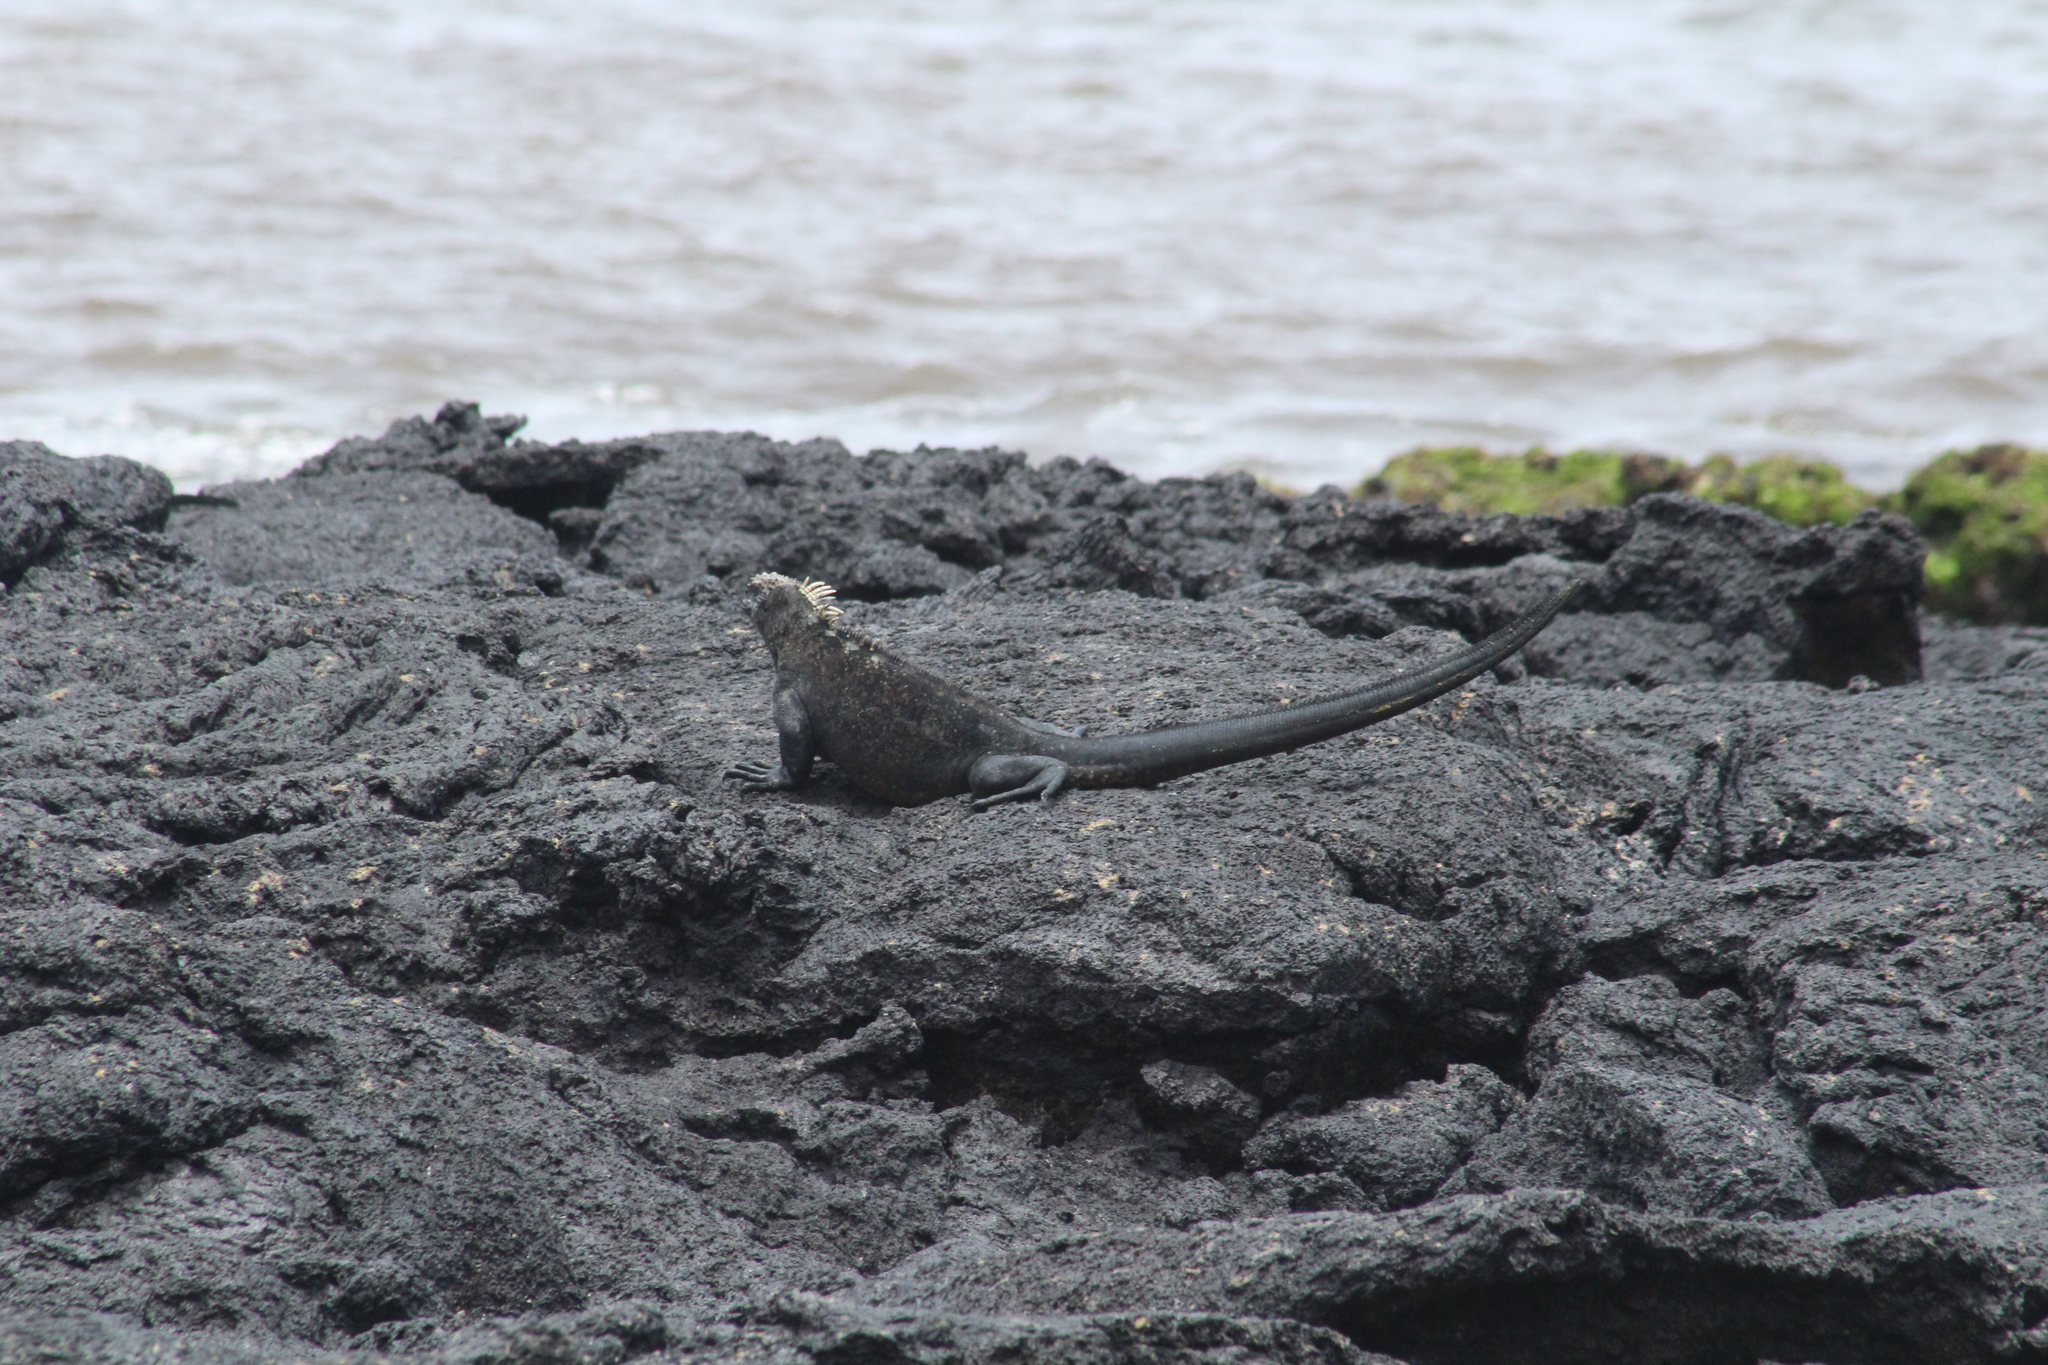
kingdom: Animalia
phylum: Chordata
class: Squamata
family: Iguanidae
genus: Amblyrhynchus
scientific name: Amblyrhynchus cristatus
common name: Marine iguana
